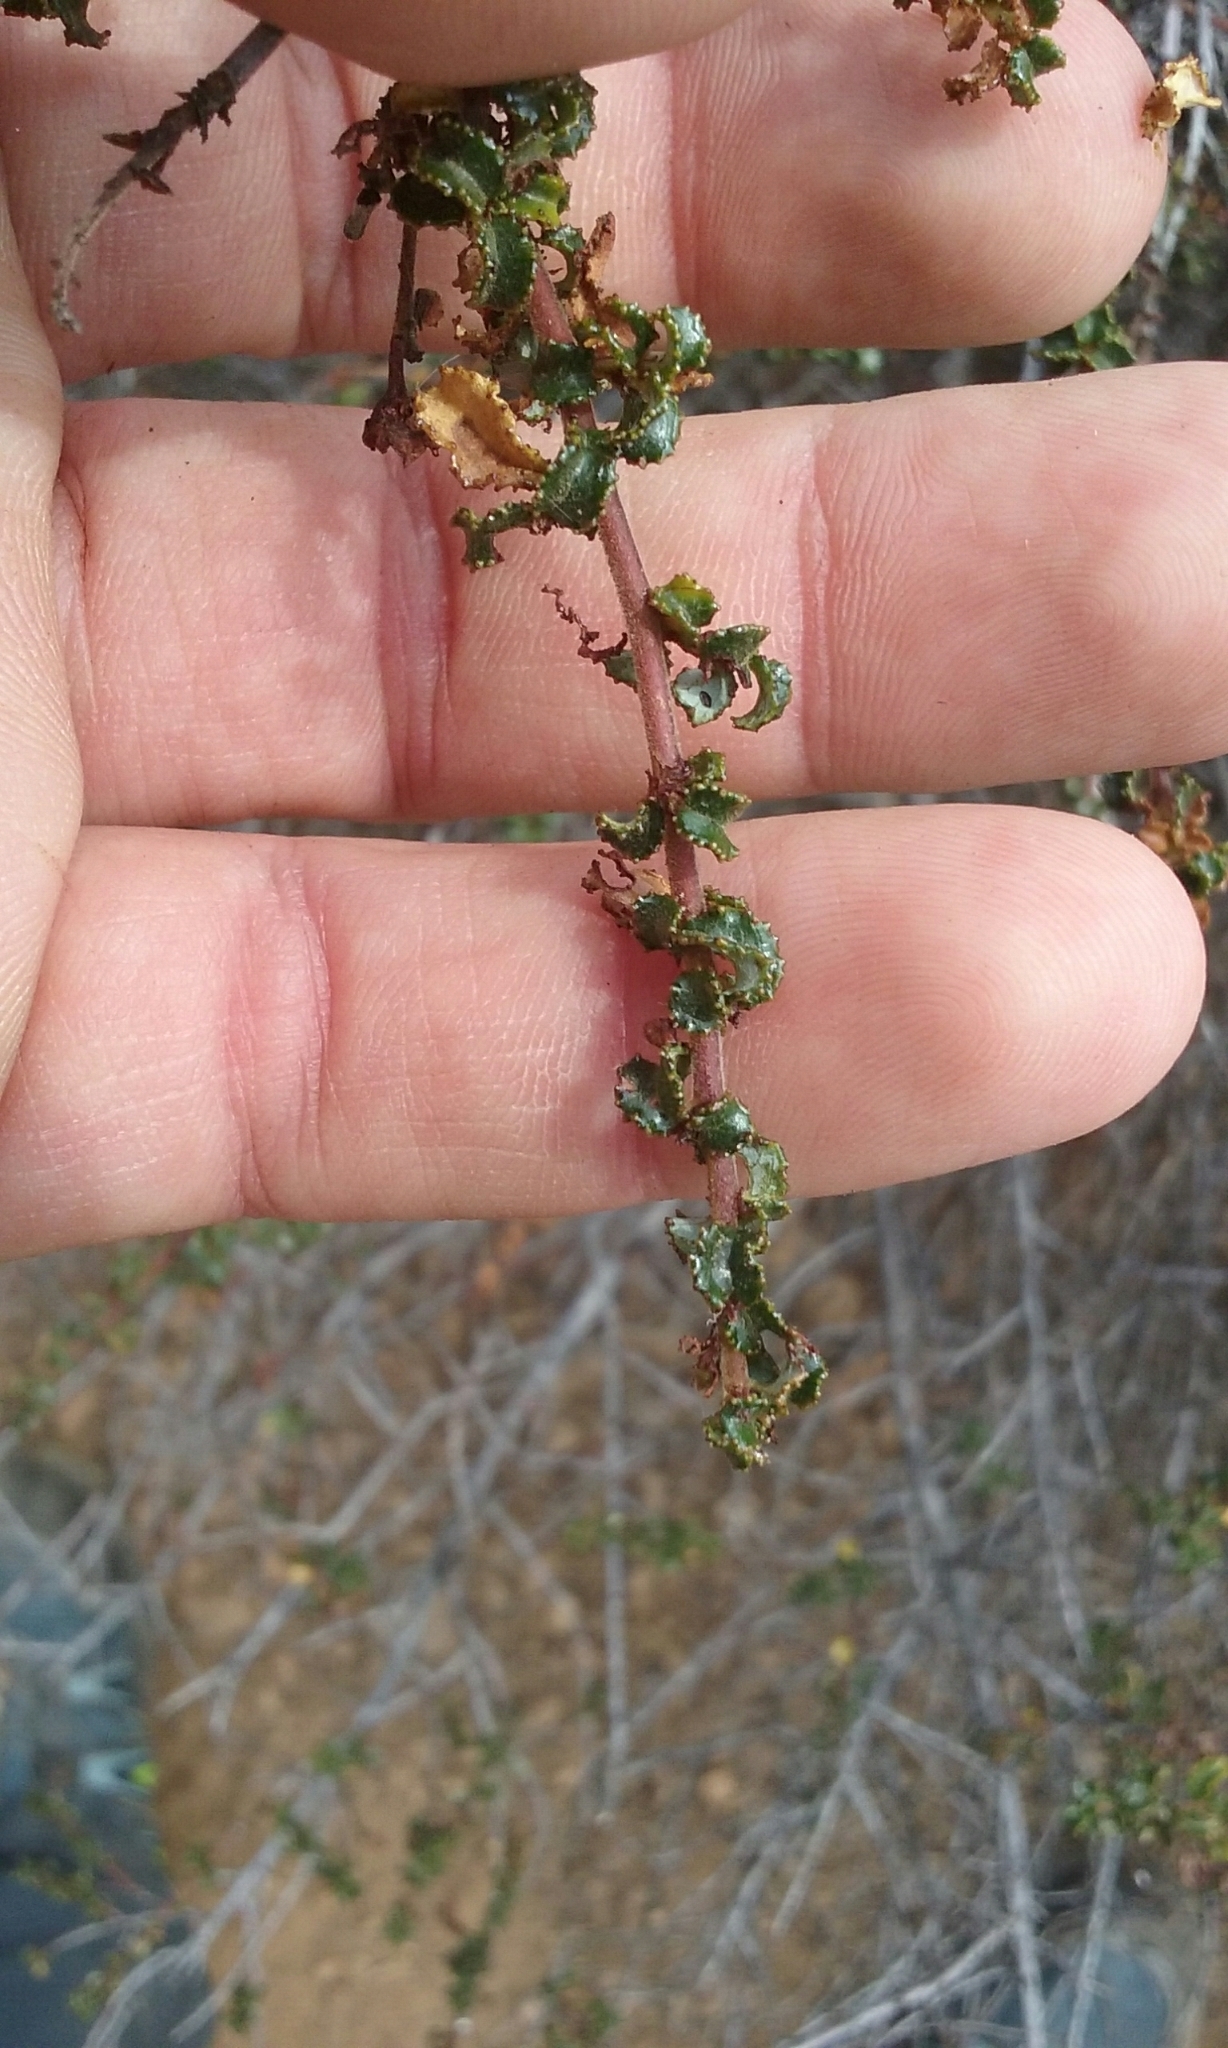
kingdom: Plantae
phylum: Tracheophyta
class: Magnoliopsida
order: Rosales
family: Rhamnaceae
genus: Ceanothus
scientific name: Ceanothus foliosus
